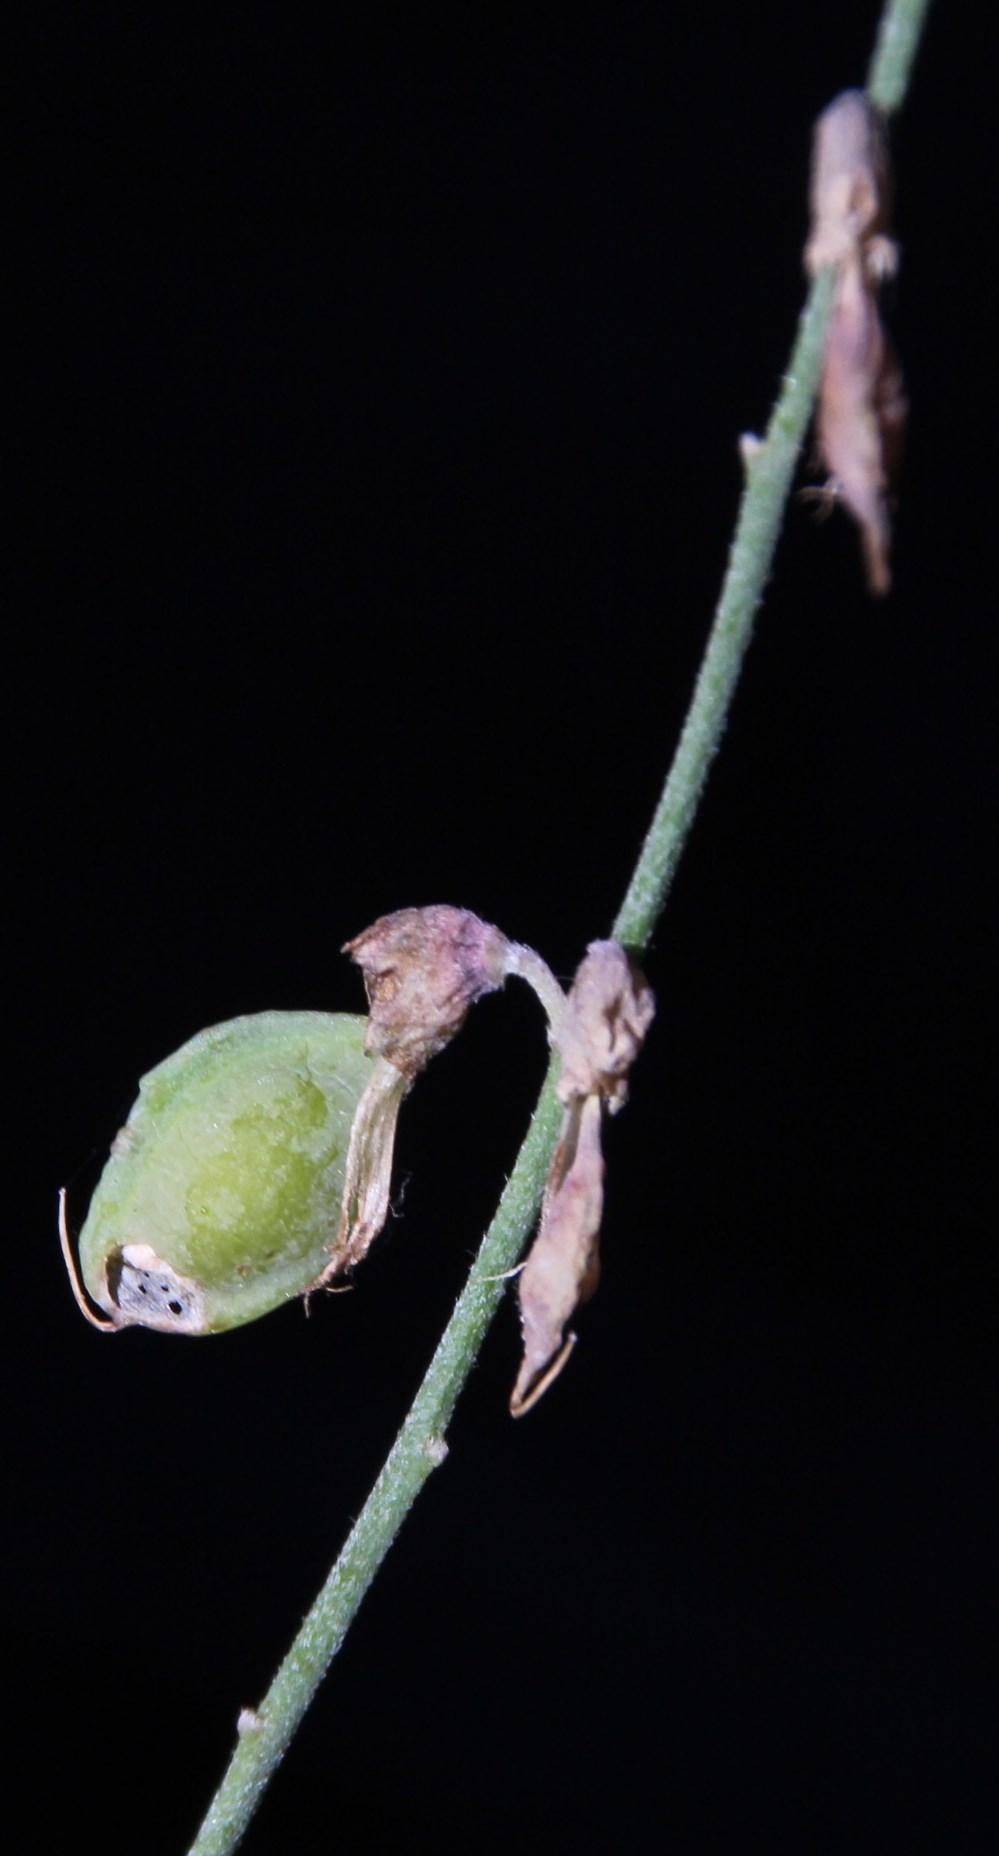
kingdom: Plantae
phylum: Tracheophyta
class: Magnoliopsida
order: Fabales
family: Fabaceae
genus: Wiborgia
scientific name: Wiborgia obcordata
